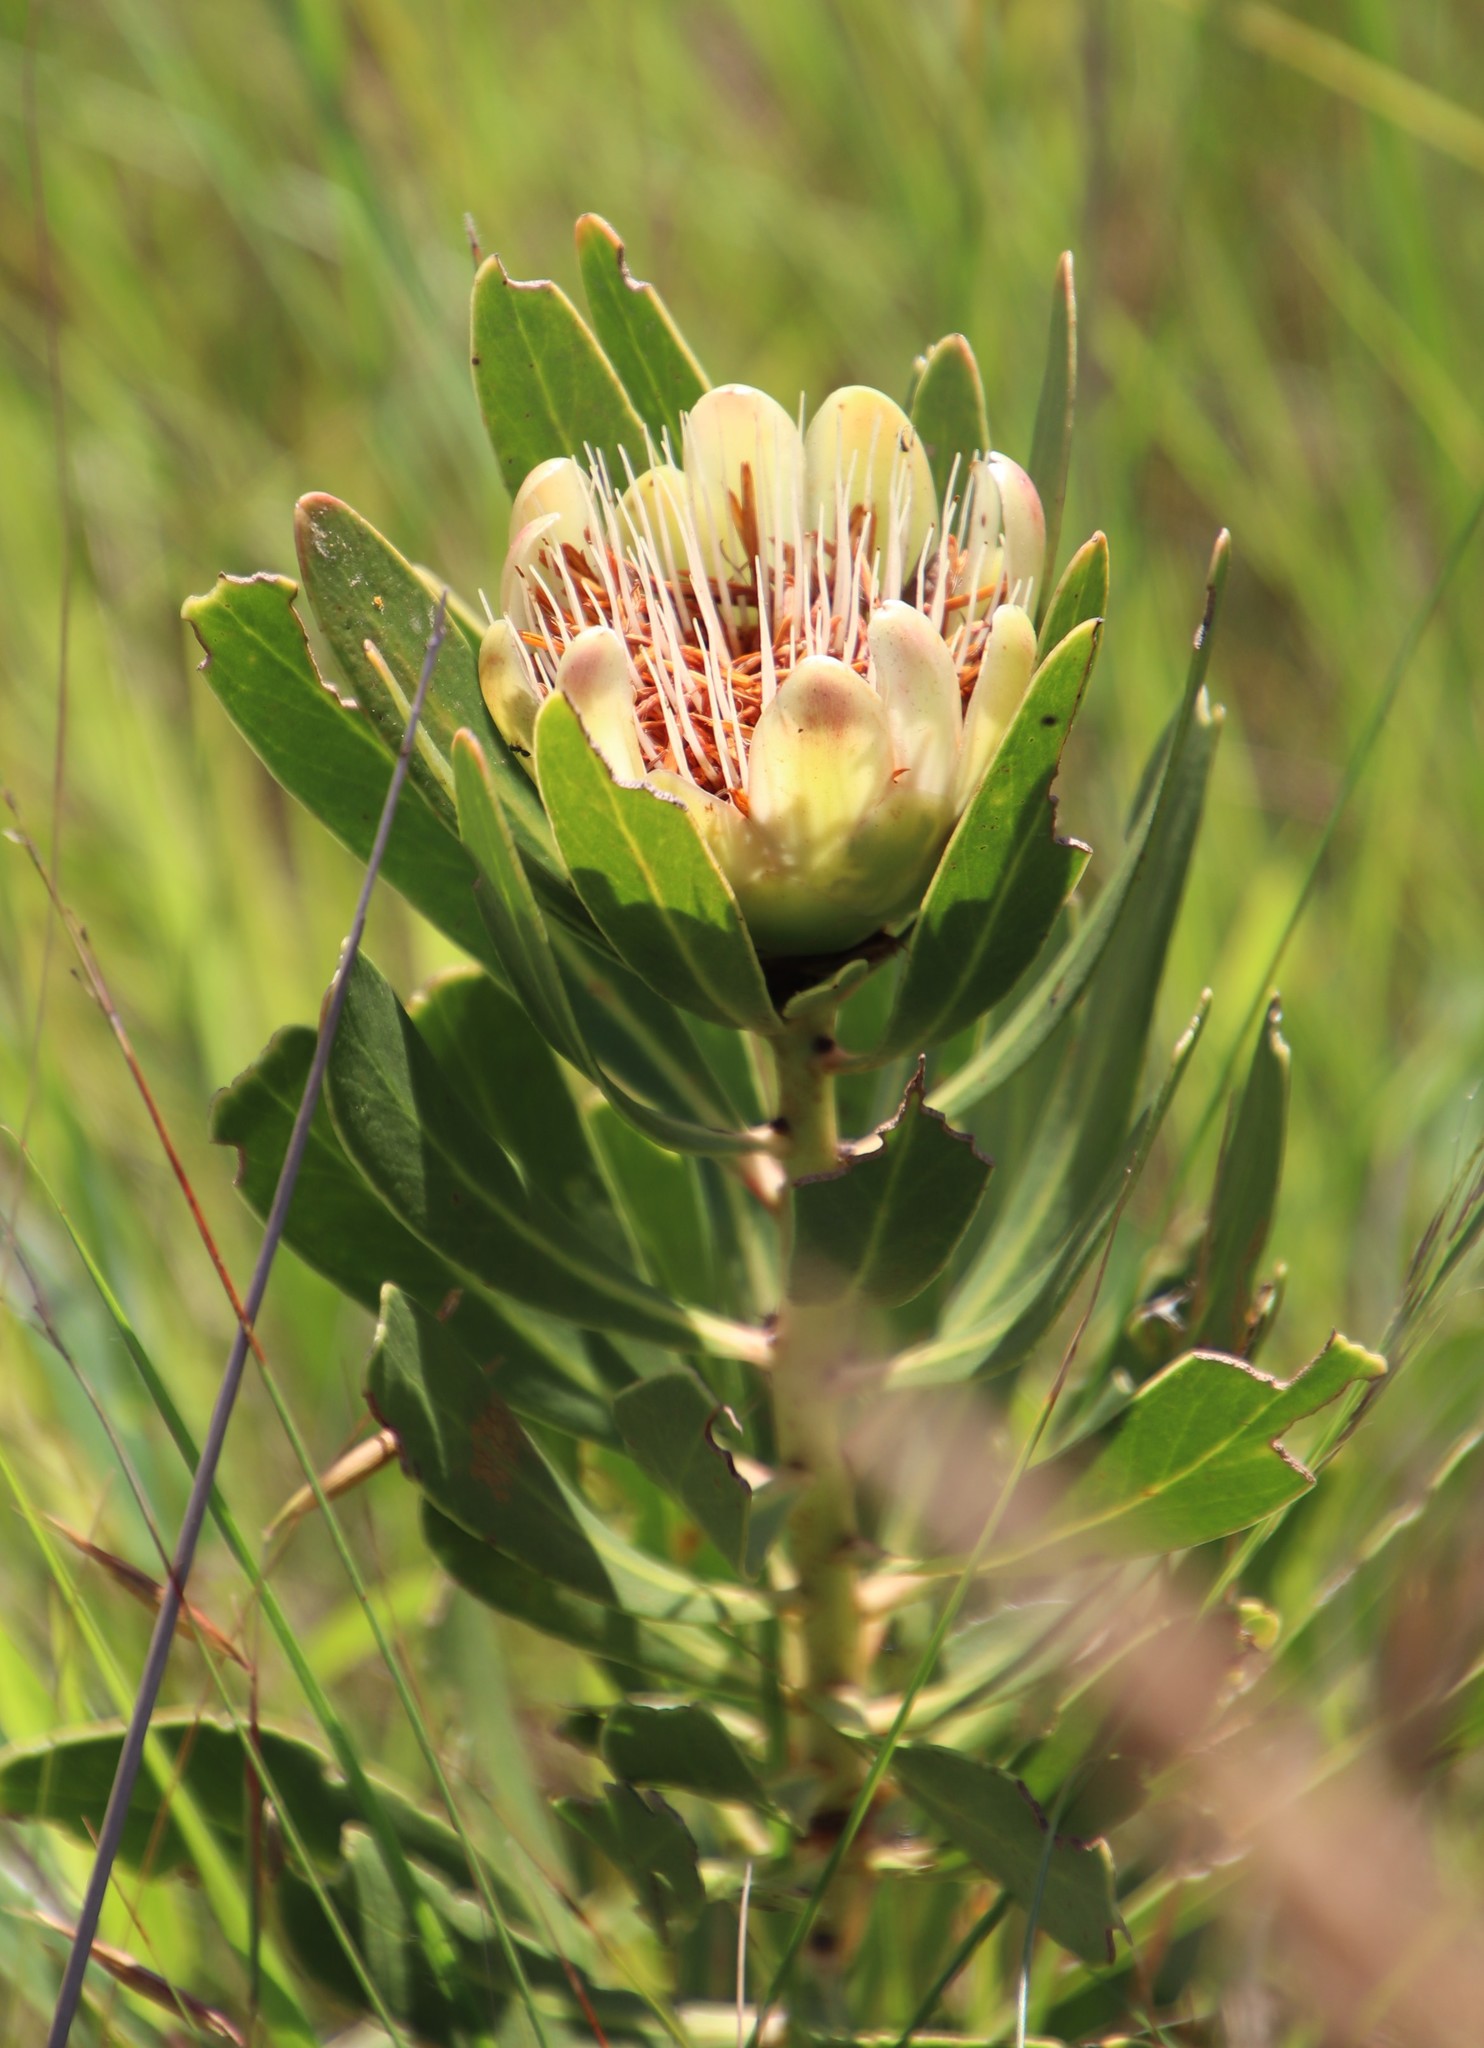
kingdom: Plantae
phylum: Tracheophyta
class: Magnoliopsida
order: Proteales
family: Proteaceae
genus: Protea
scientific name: Protea simplex
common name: Dwarf grassveld sugarbush
